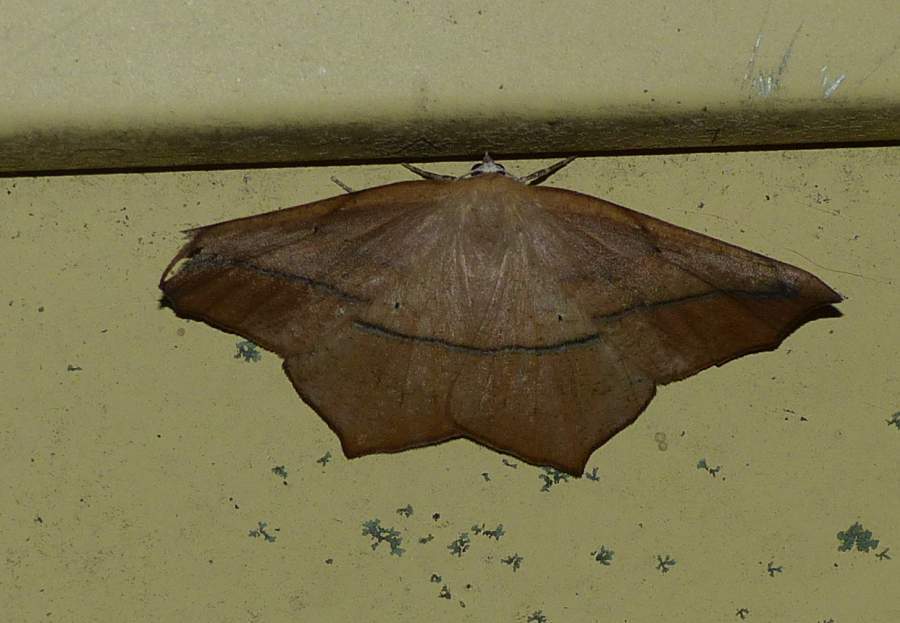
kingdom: Animalia
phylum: Arthropoda
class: Insecta
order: Lepidoptera
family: Geometridae
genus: Prochoerodes
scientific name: Prochoerodes lineola
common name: Large maple spanworm
